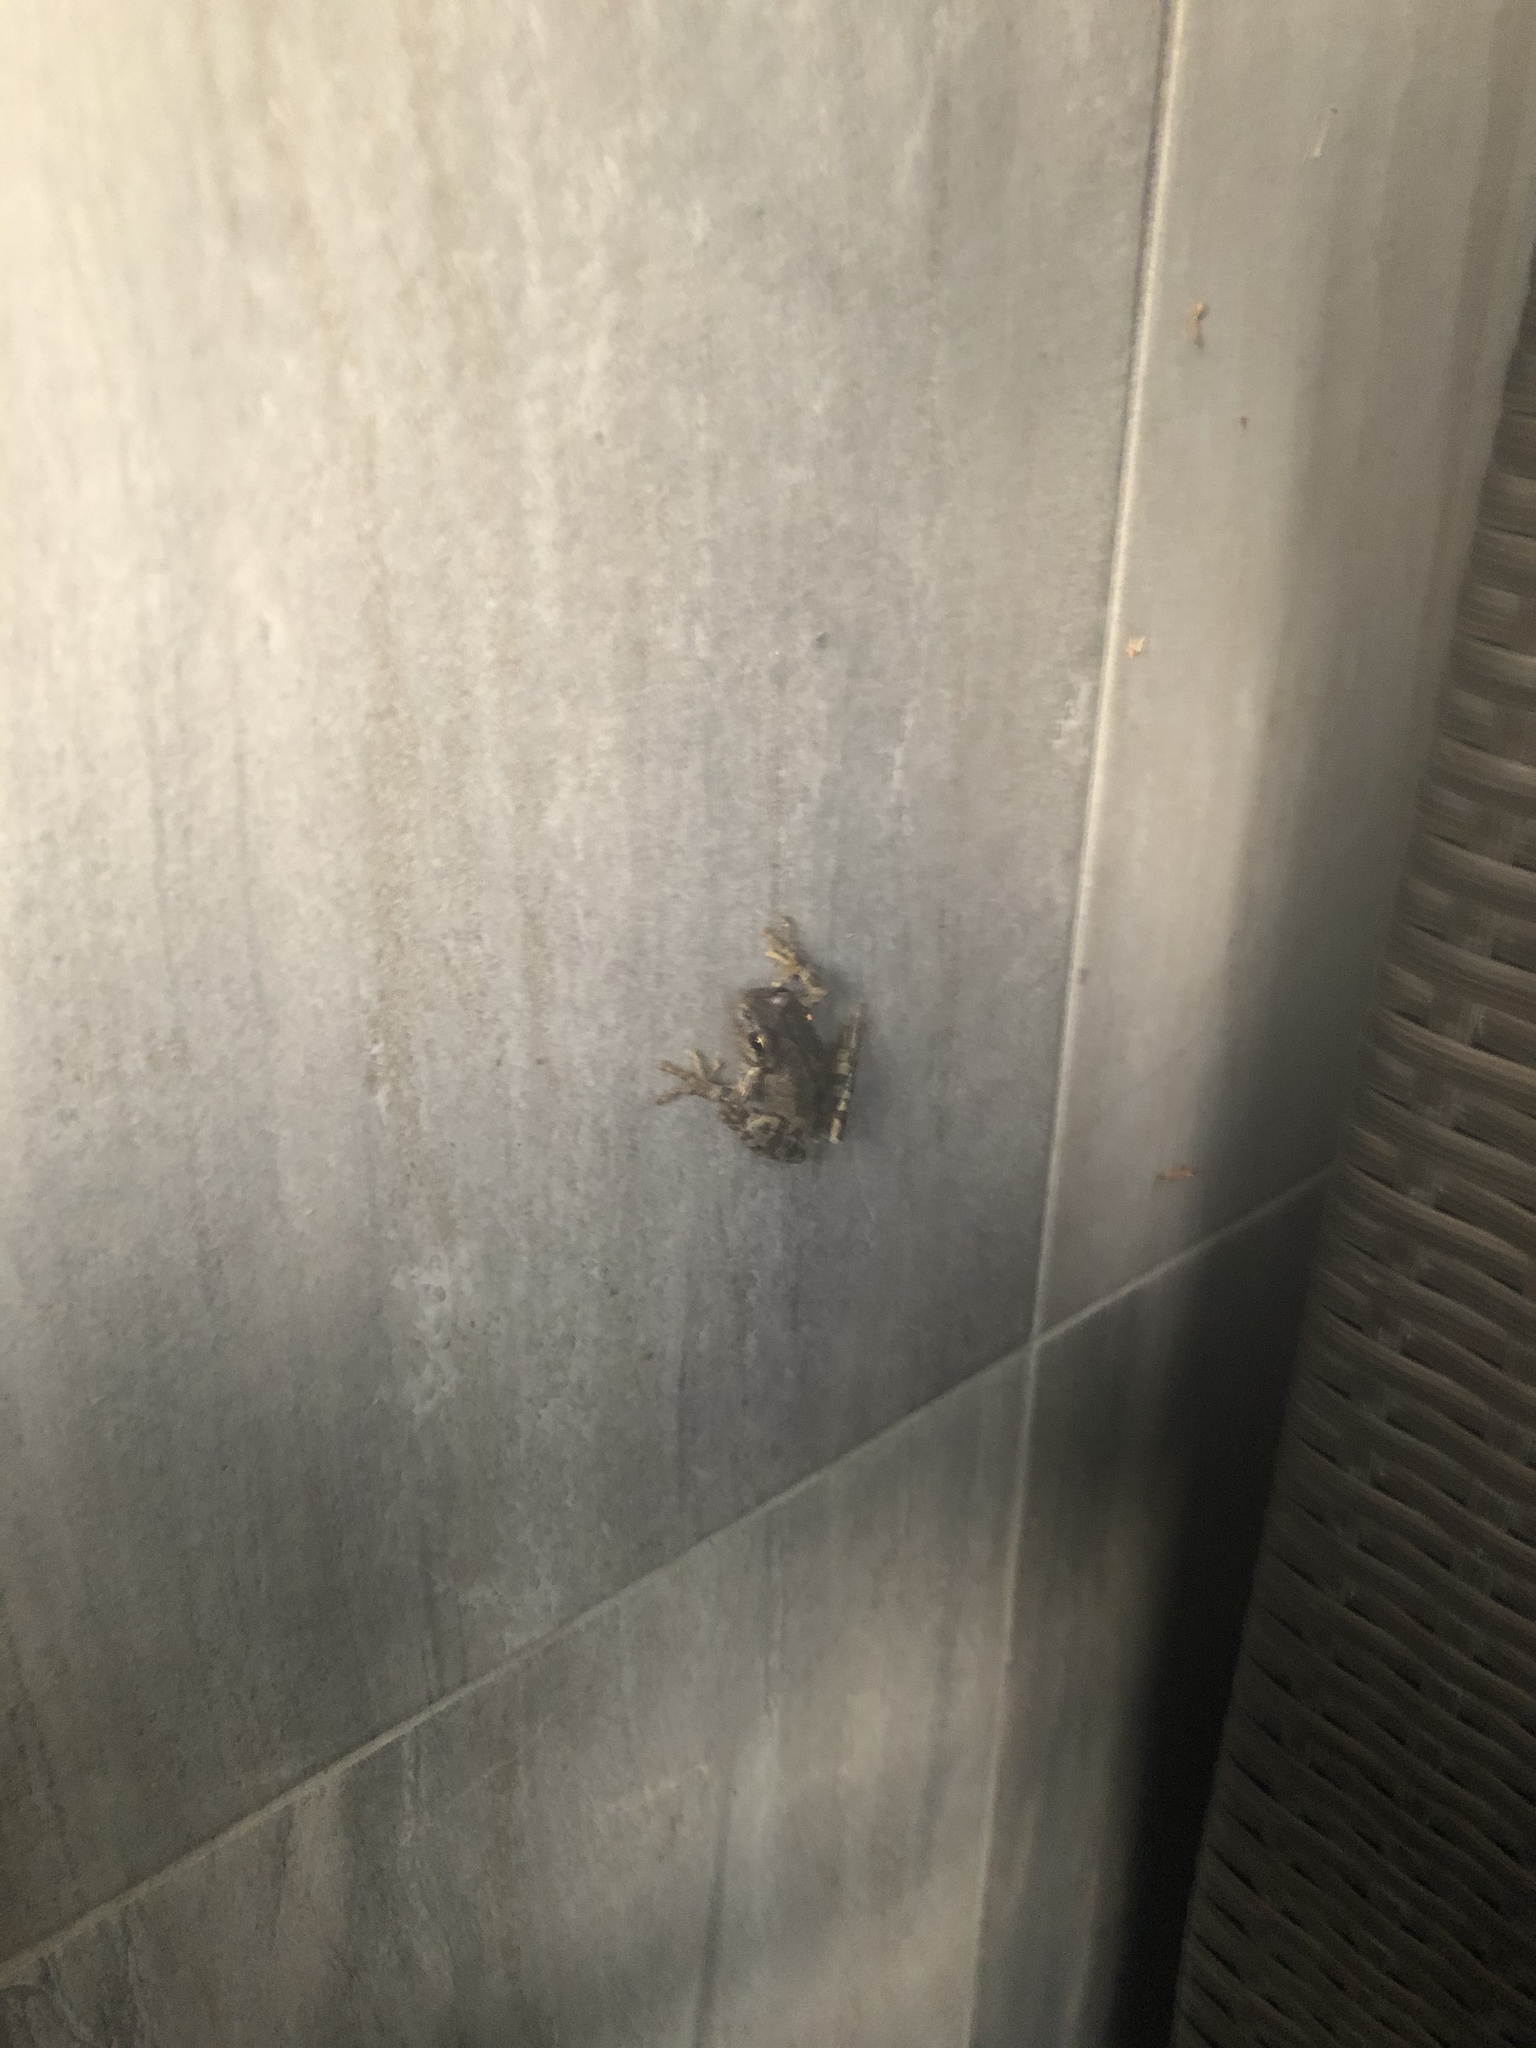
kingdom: Animalia
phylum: Chordata
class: Amphibia
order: Anura
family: Hylidae
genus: Pseudacris
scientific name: Pseudacris regilla
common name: Pacific chorus frog
